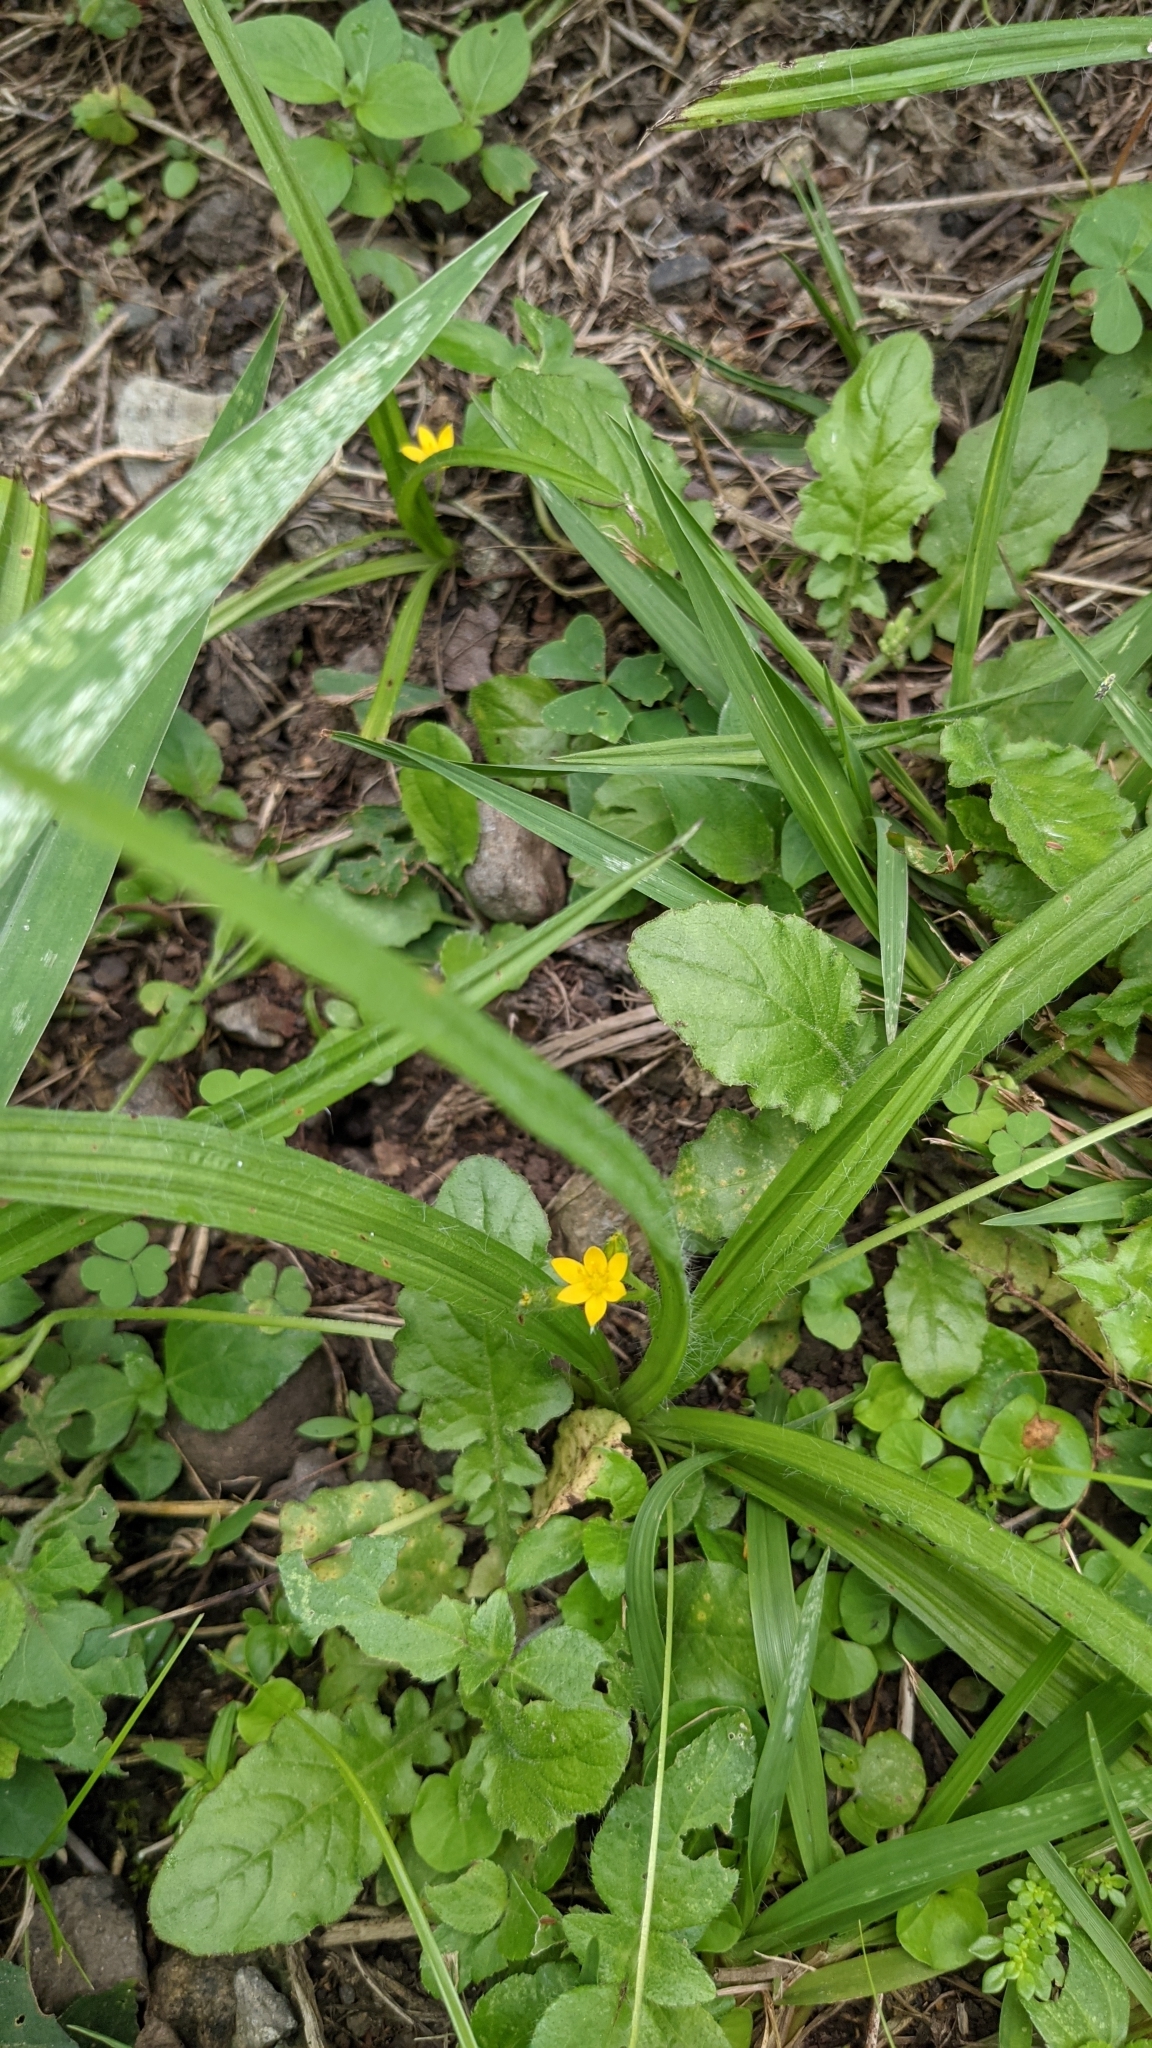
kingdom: Plantae
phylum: Tracheophyta
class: Liliopsida
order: Asparagales
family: Hypoxidaceae
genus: Hypoxis
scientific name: Hypoxis decumbens
